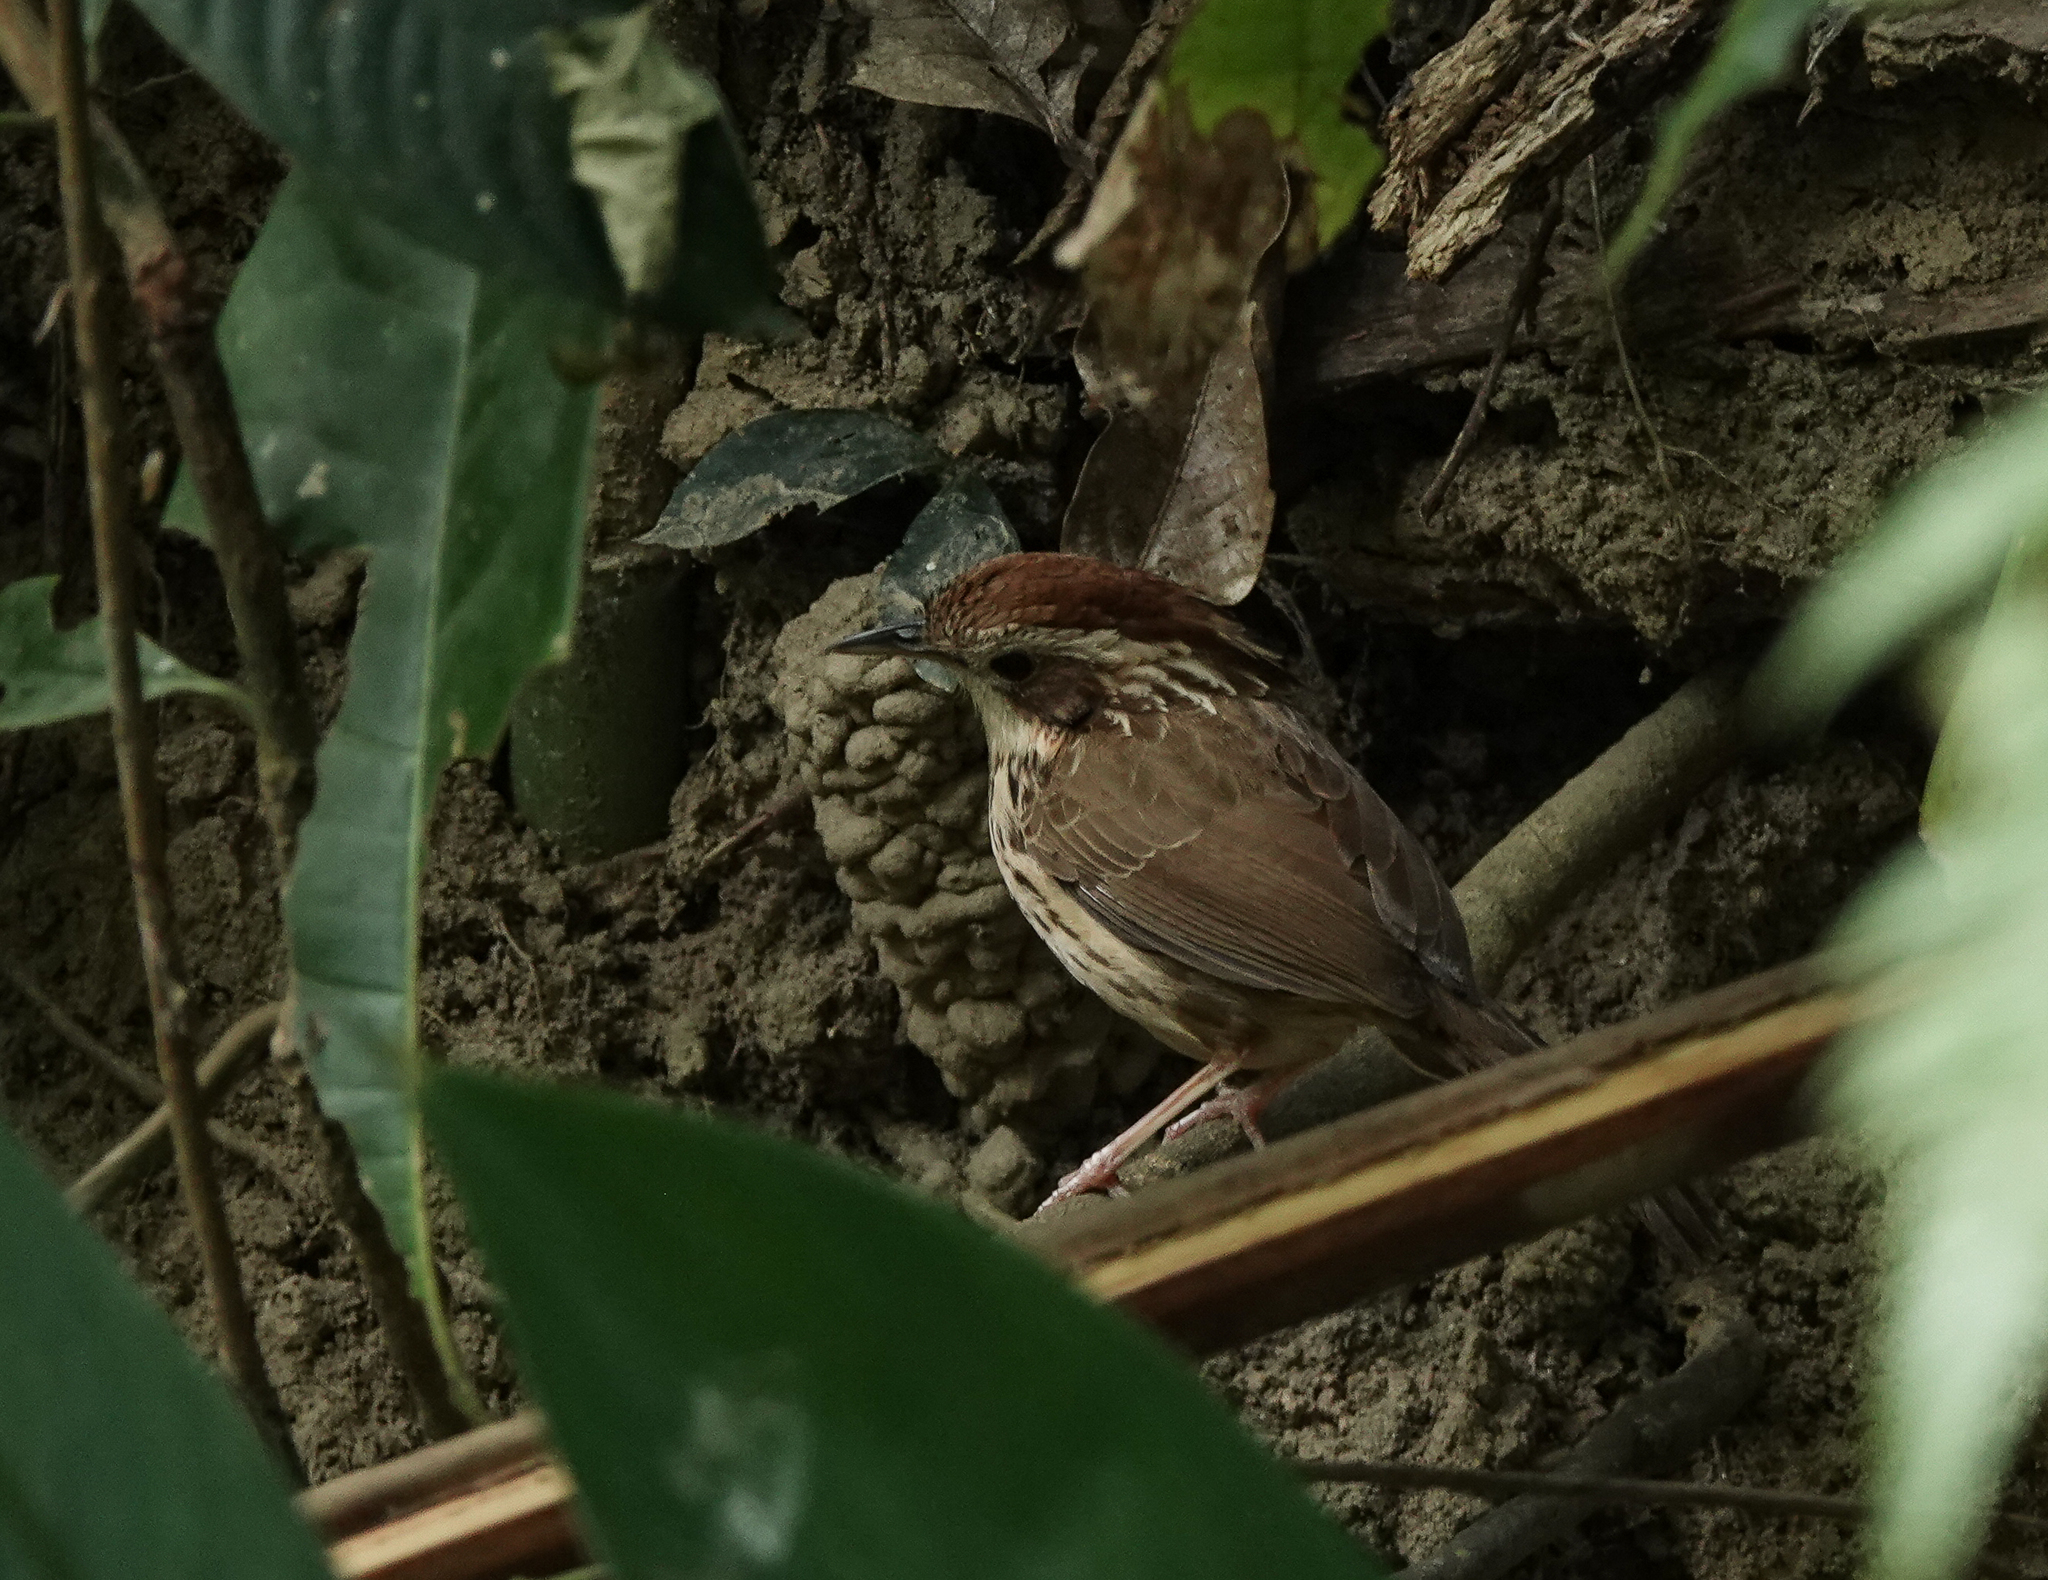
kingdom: Animalia
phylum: Chordata
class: Aves
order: Passeriformes
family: Pellorneidae
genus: Pellorneum
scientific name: Pellorneum ruficeps
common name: Puff-throated babbler
